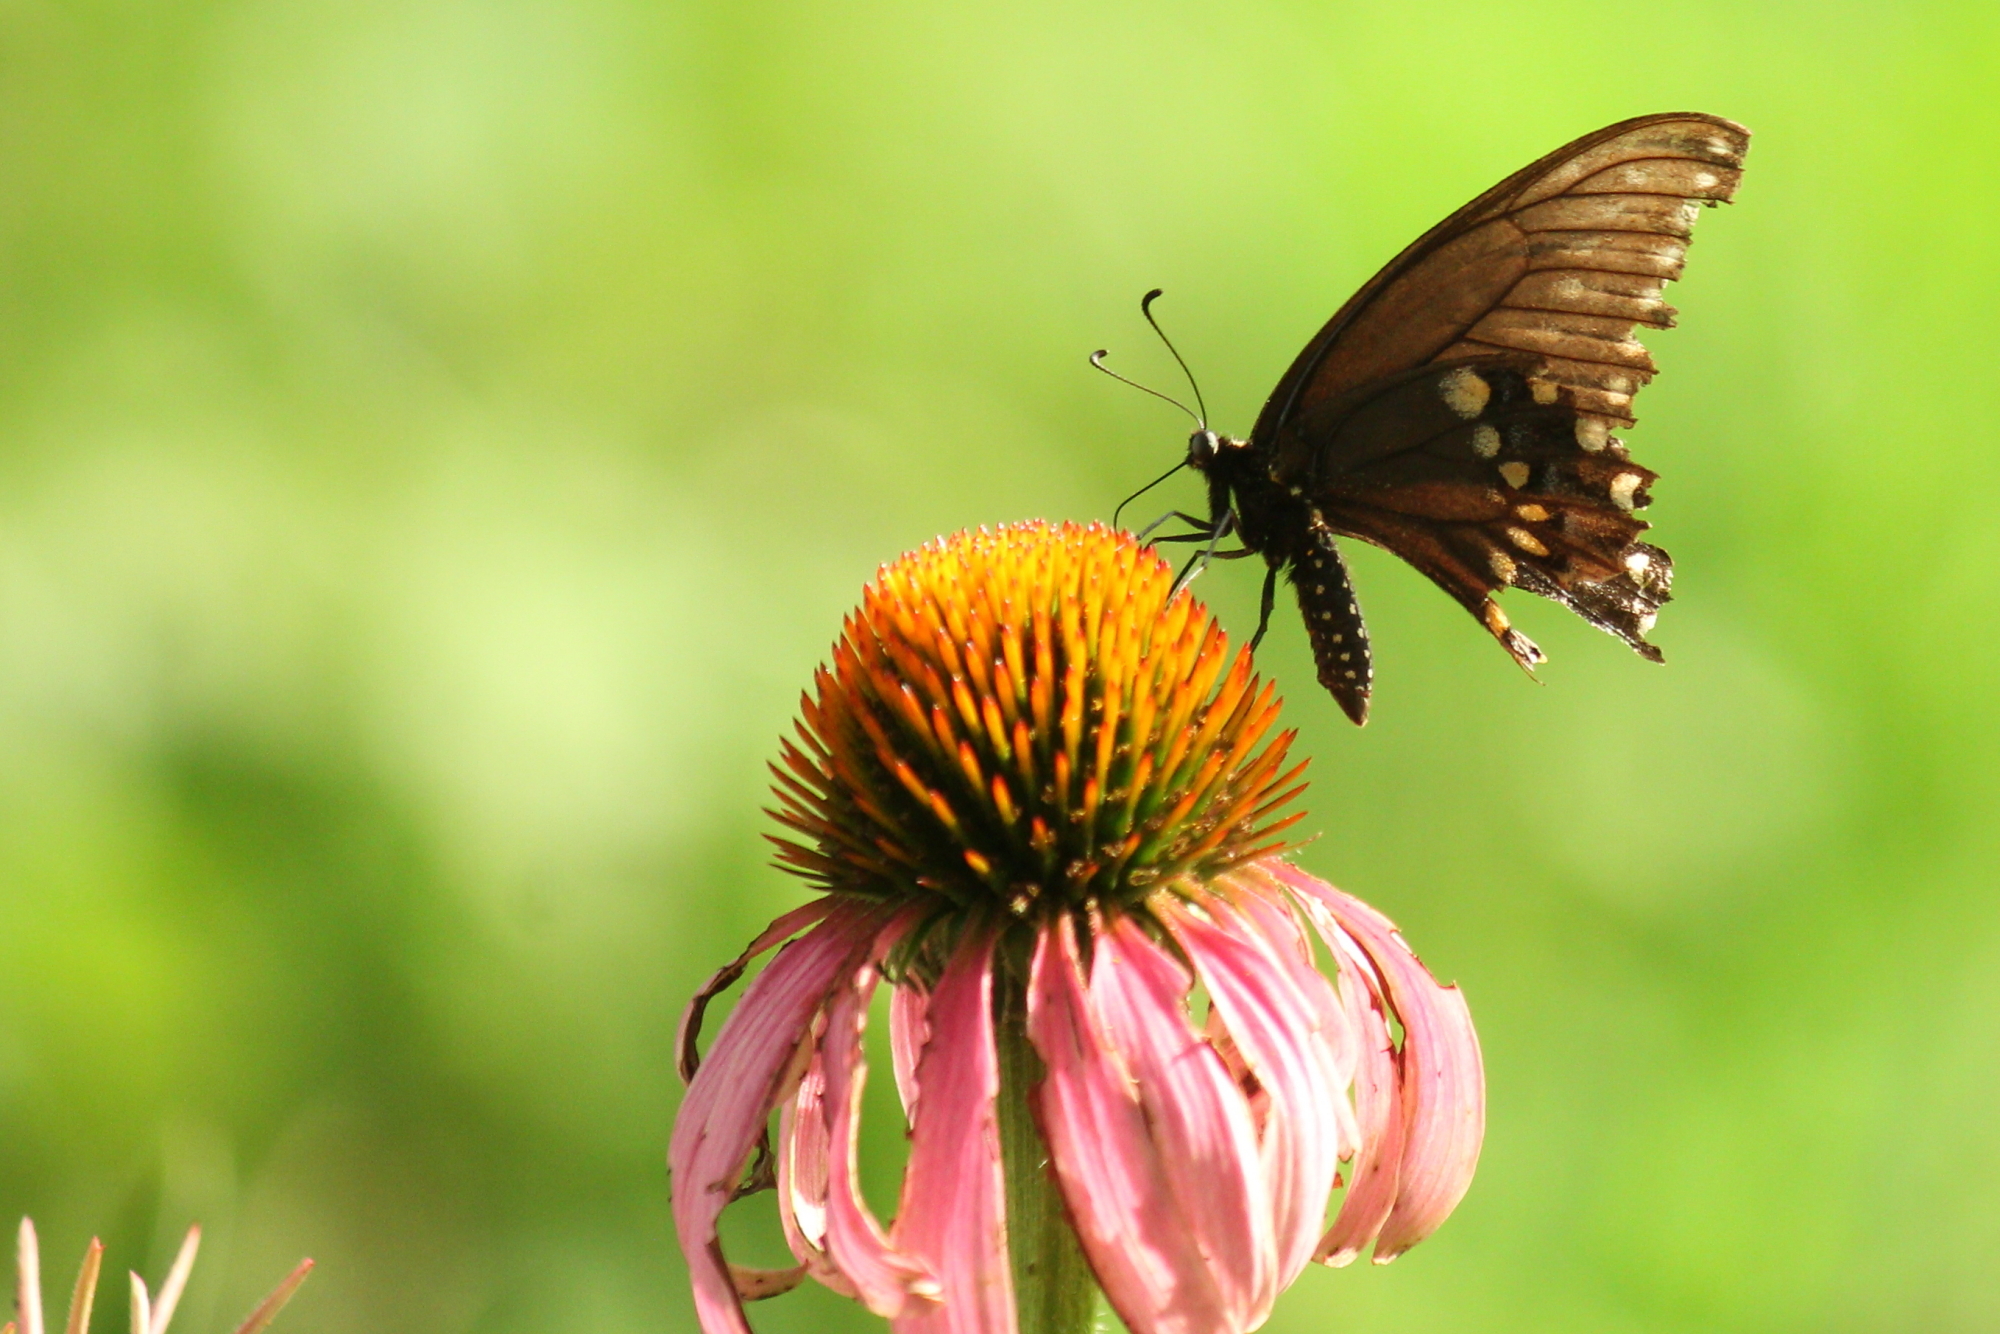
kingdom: Animalia
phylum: Arthropoda
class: Insecta
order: Lepidoptera
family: Papilionidae
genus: Papilio
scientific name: Papilio polyxenes
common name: Black swallowtail
